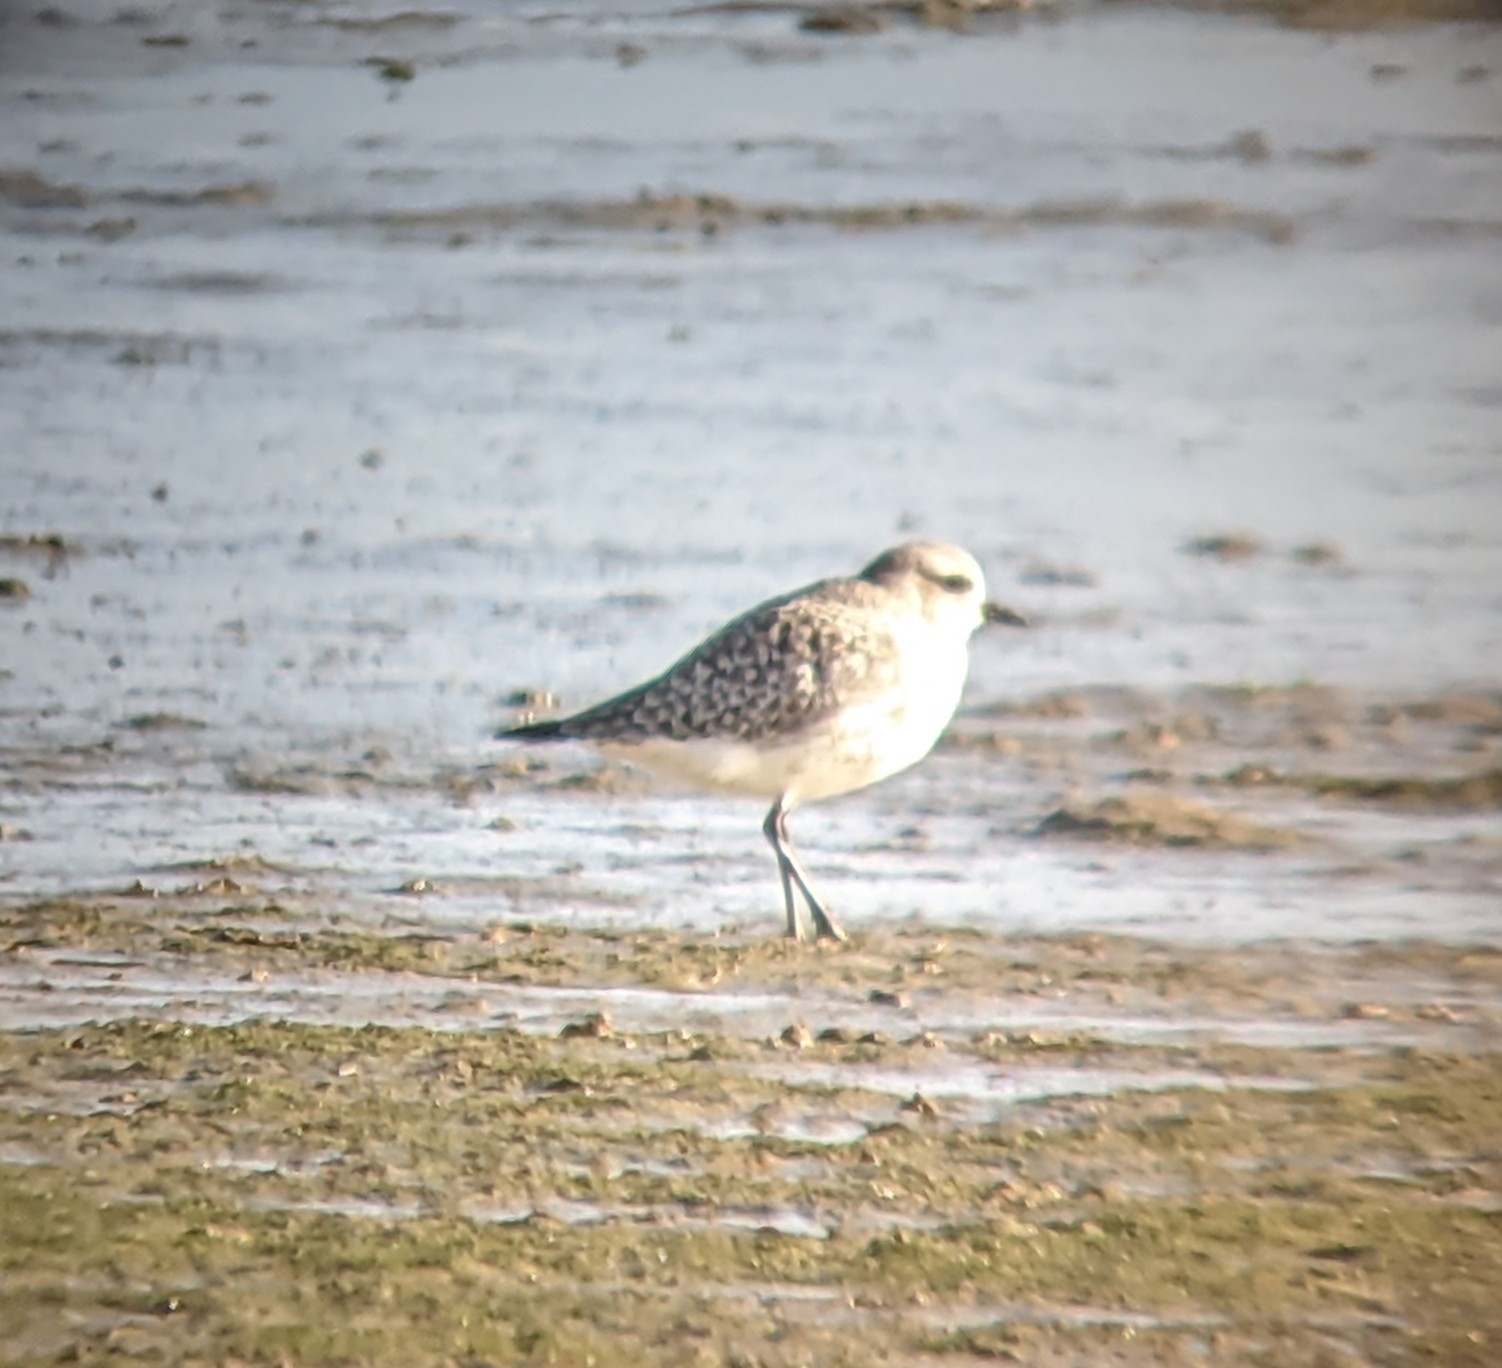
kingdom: Animalia
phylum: Chordata
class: Aves
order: Charadriiformes
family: Charadriidae
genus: Pluvialis
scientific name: Pluvialis squatarola
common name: Grey plover
